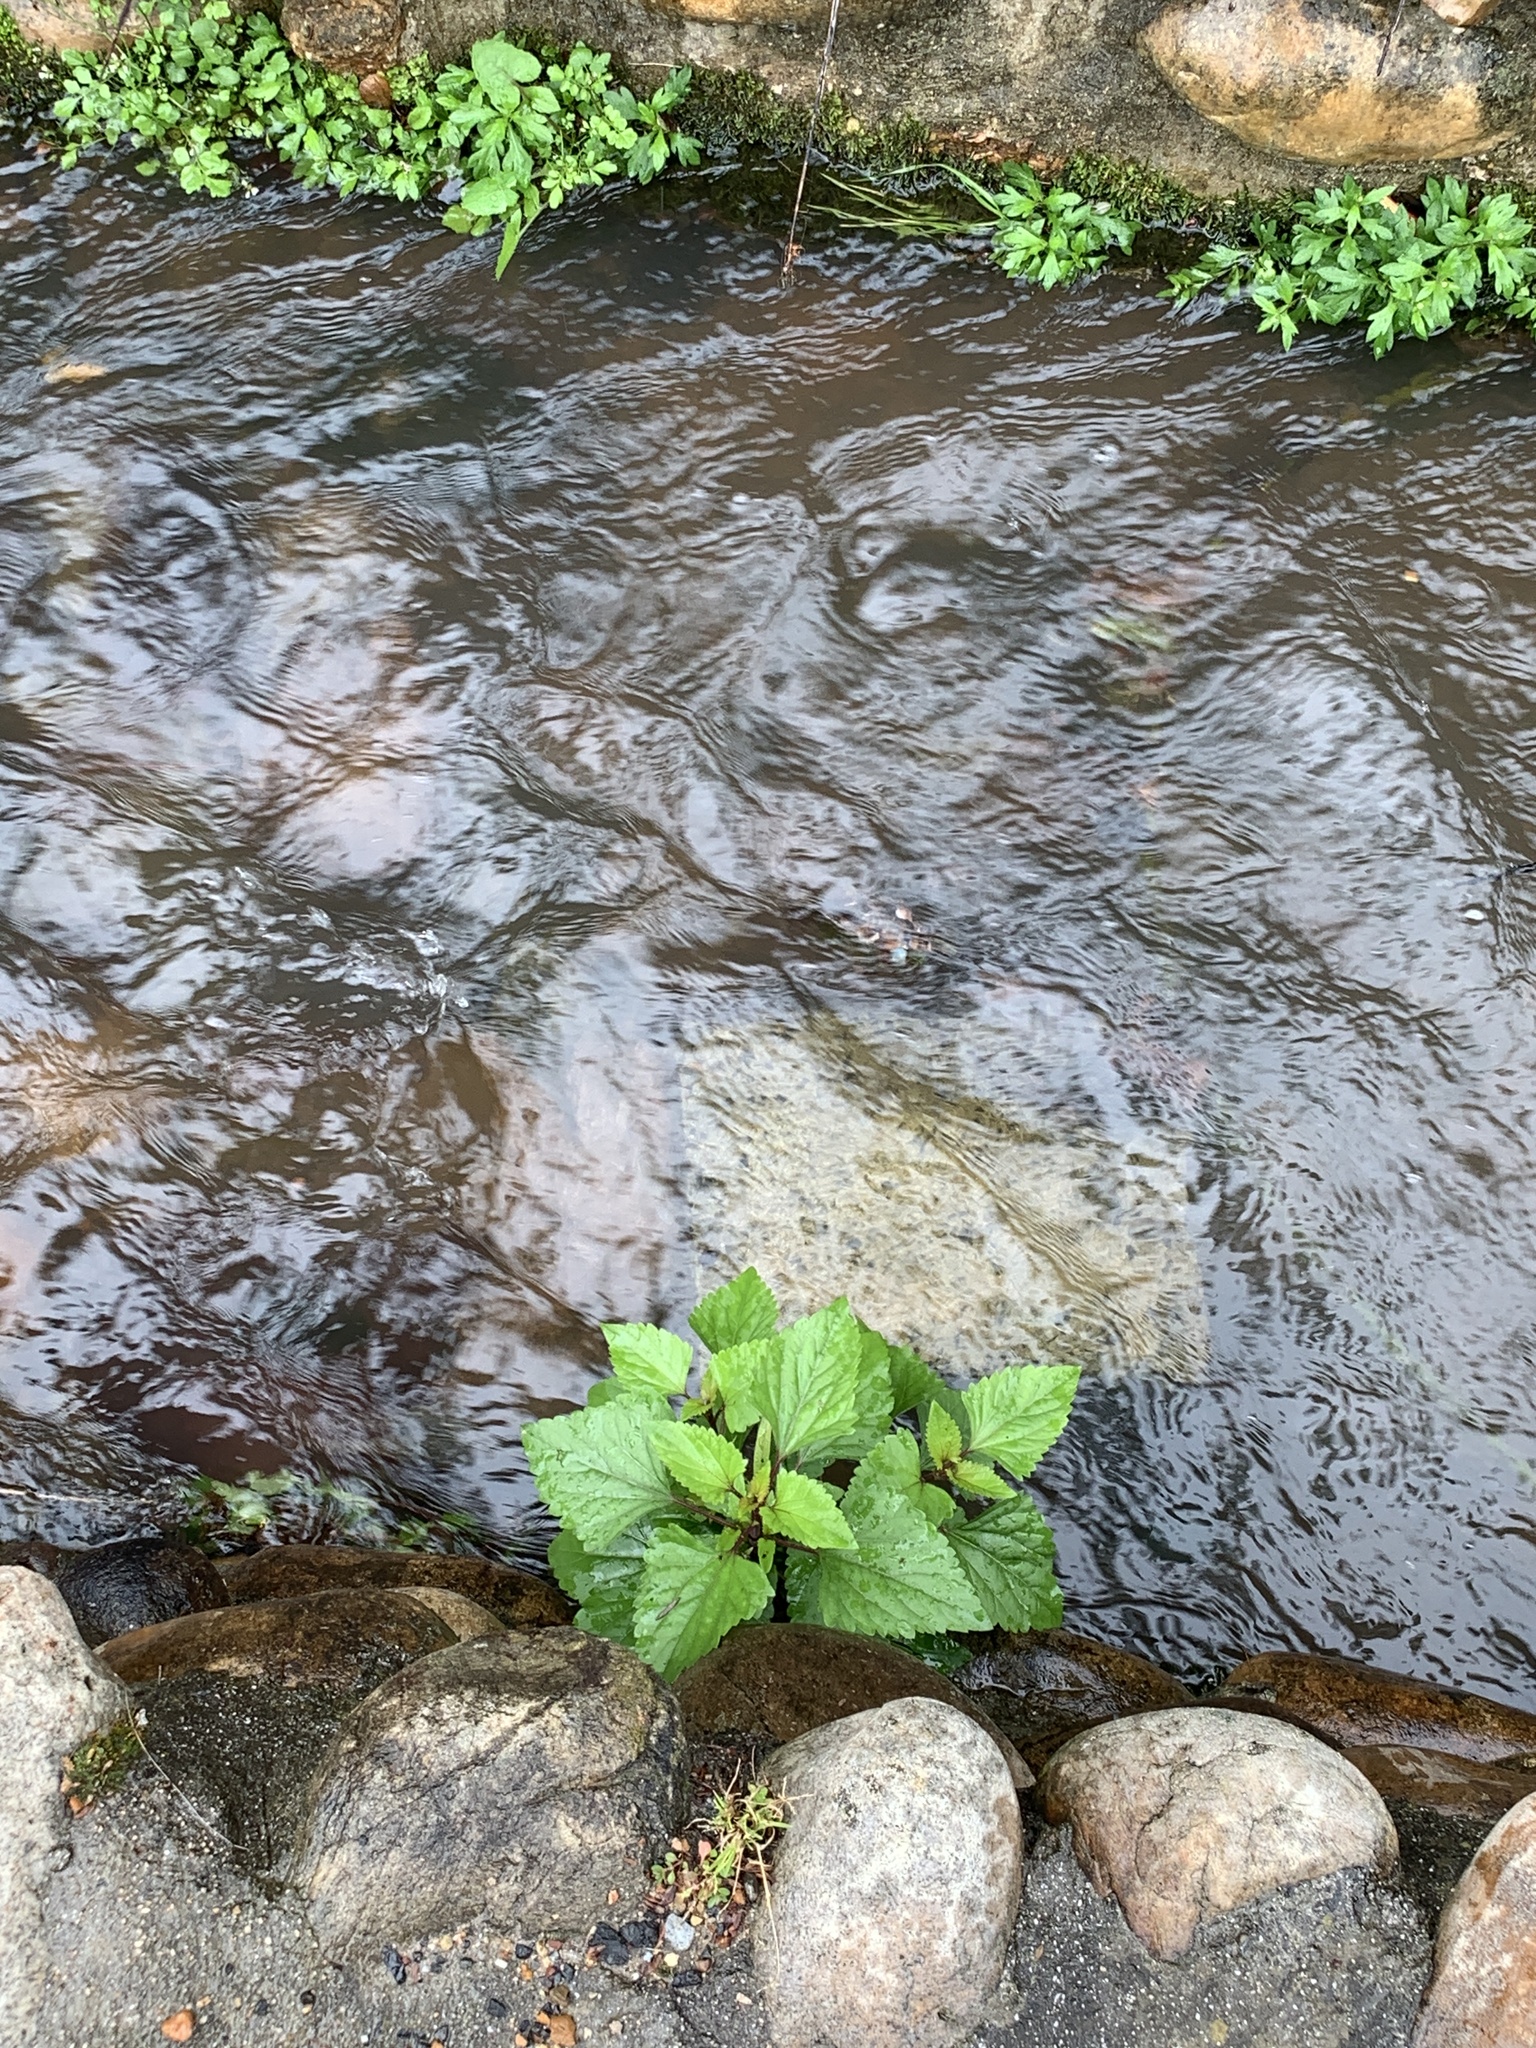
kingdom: Plantae
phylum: Tracheophyta
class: Magnoliopsida
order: Asterales
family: Asteraceae
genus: Ageratina
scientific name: Ageratina adenophora
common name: Sticky snakeroot
